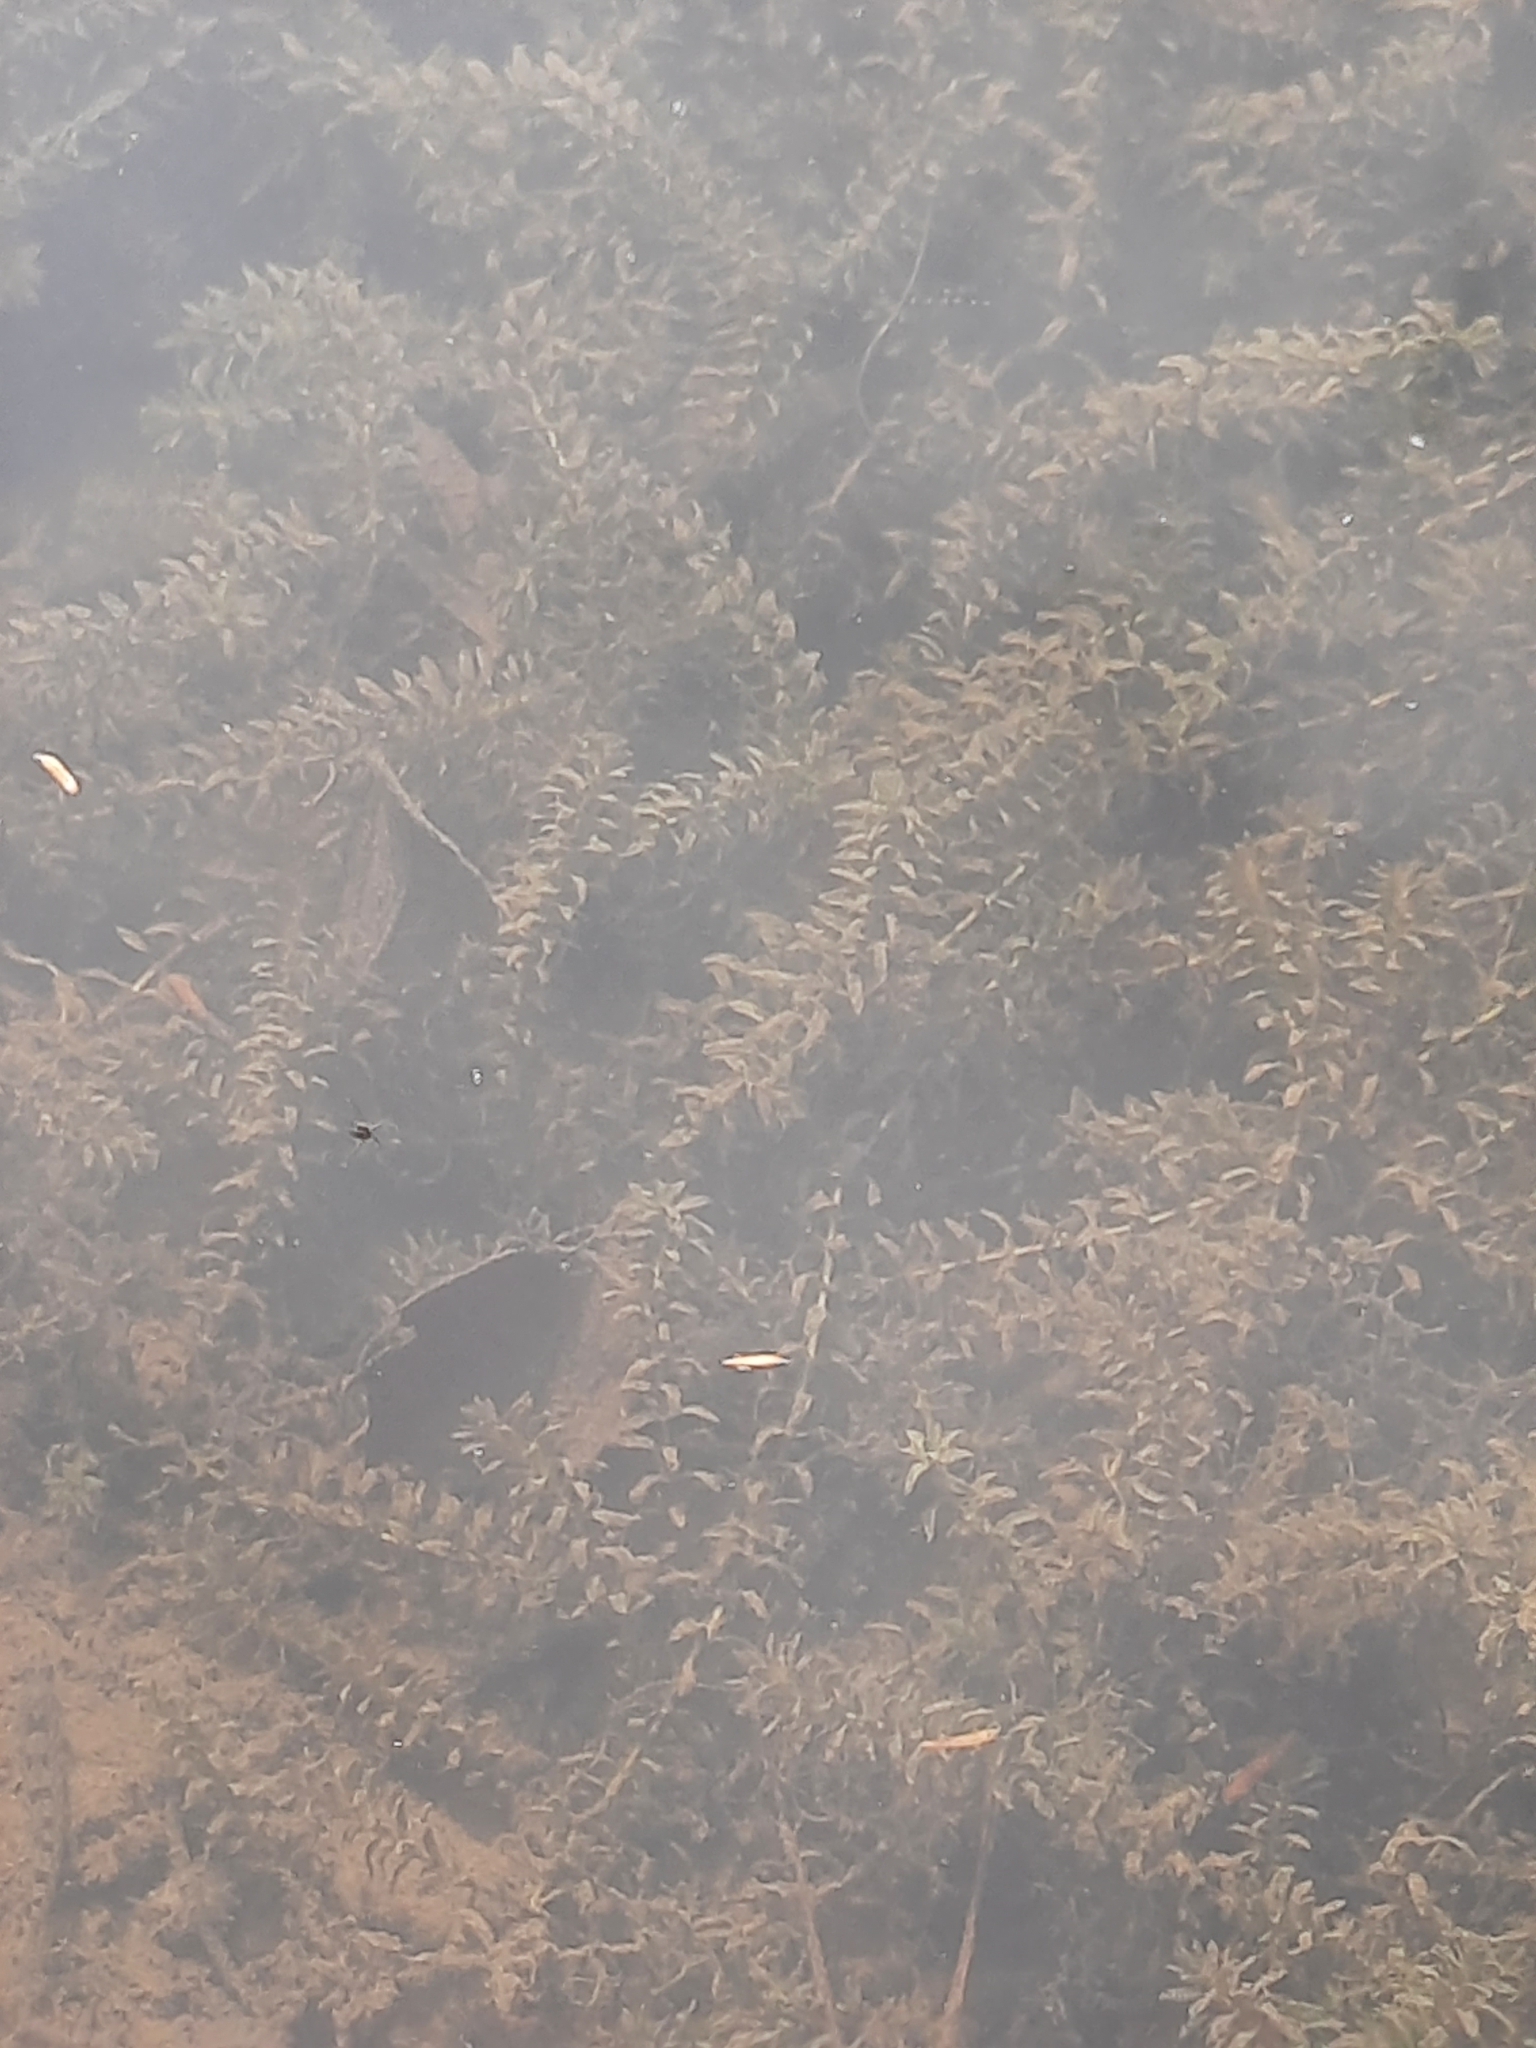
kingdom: Plantae
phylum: Tracheophyta
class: Liliopsida
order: Alismatales
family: Hydrocharitaceae
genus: Elodea
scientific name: Elodea canadensis
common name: Canadian waterweed
